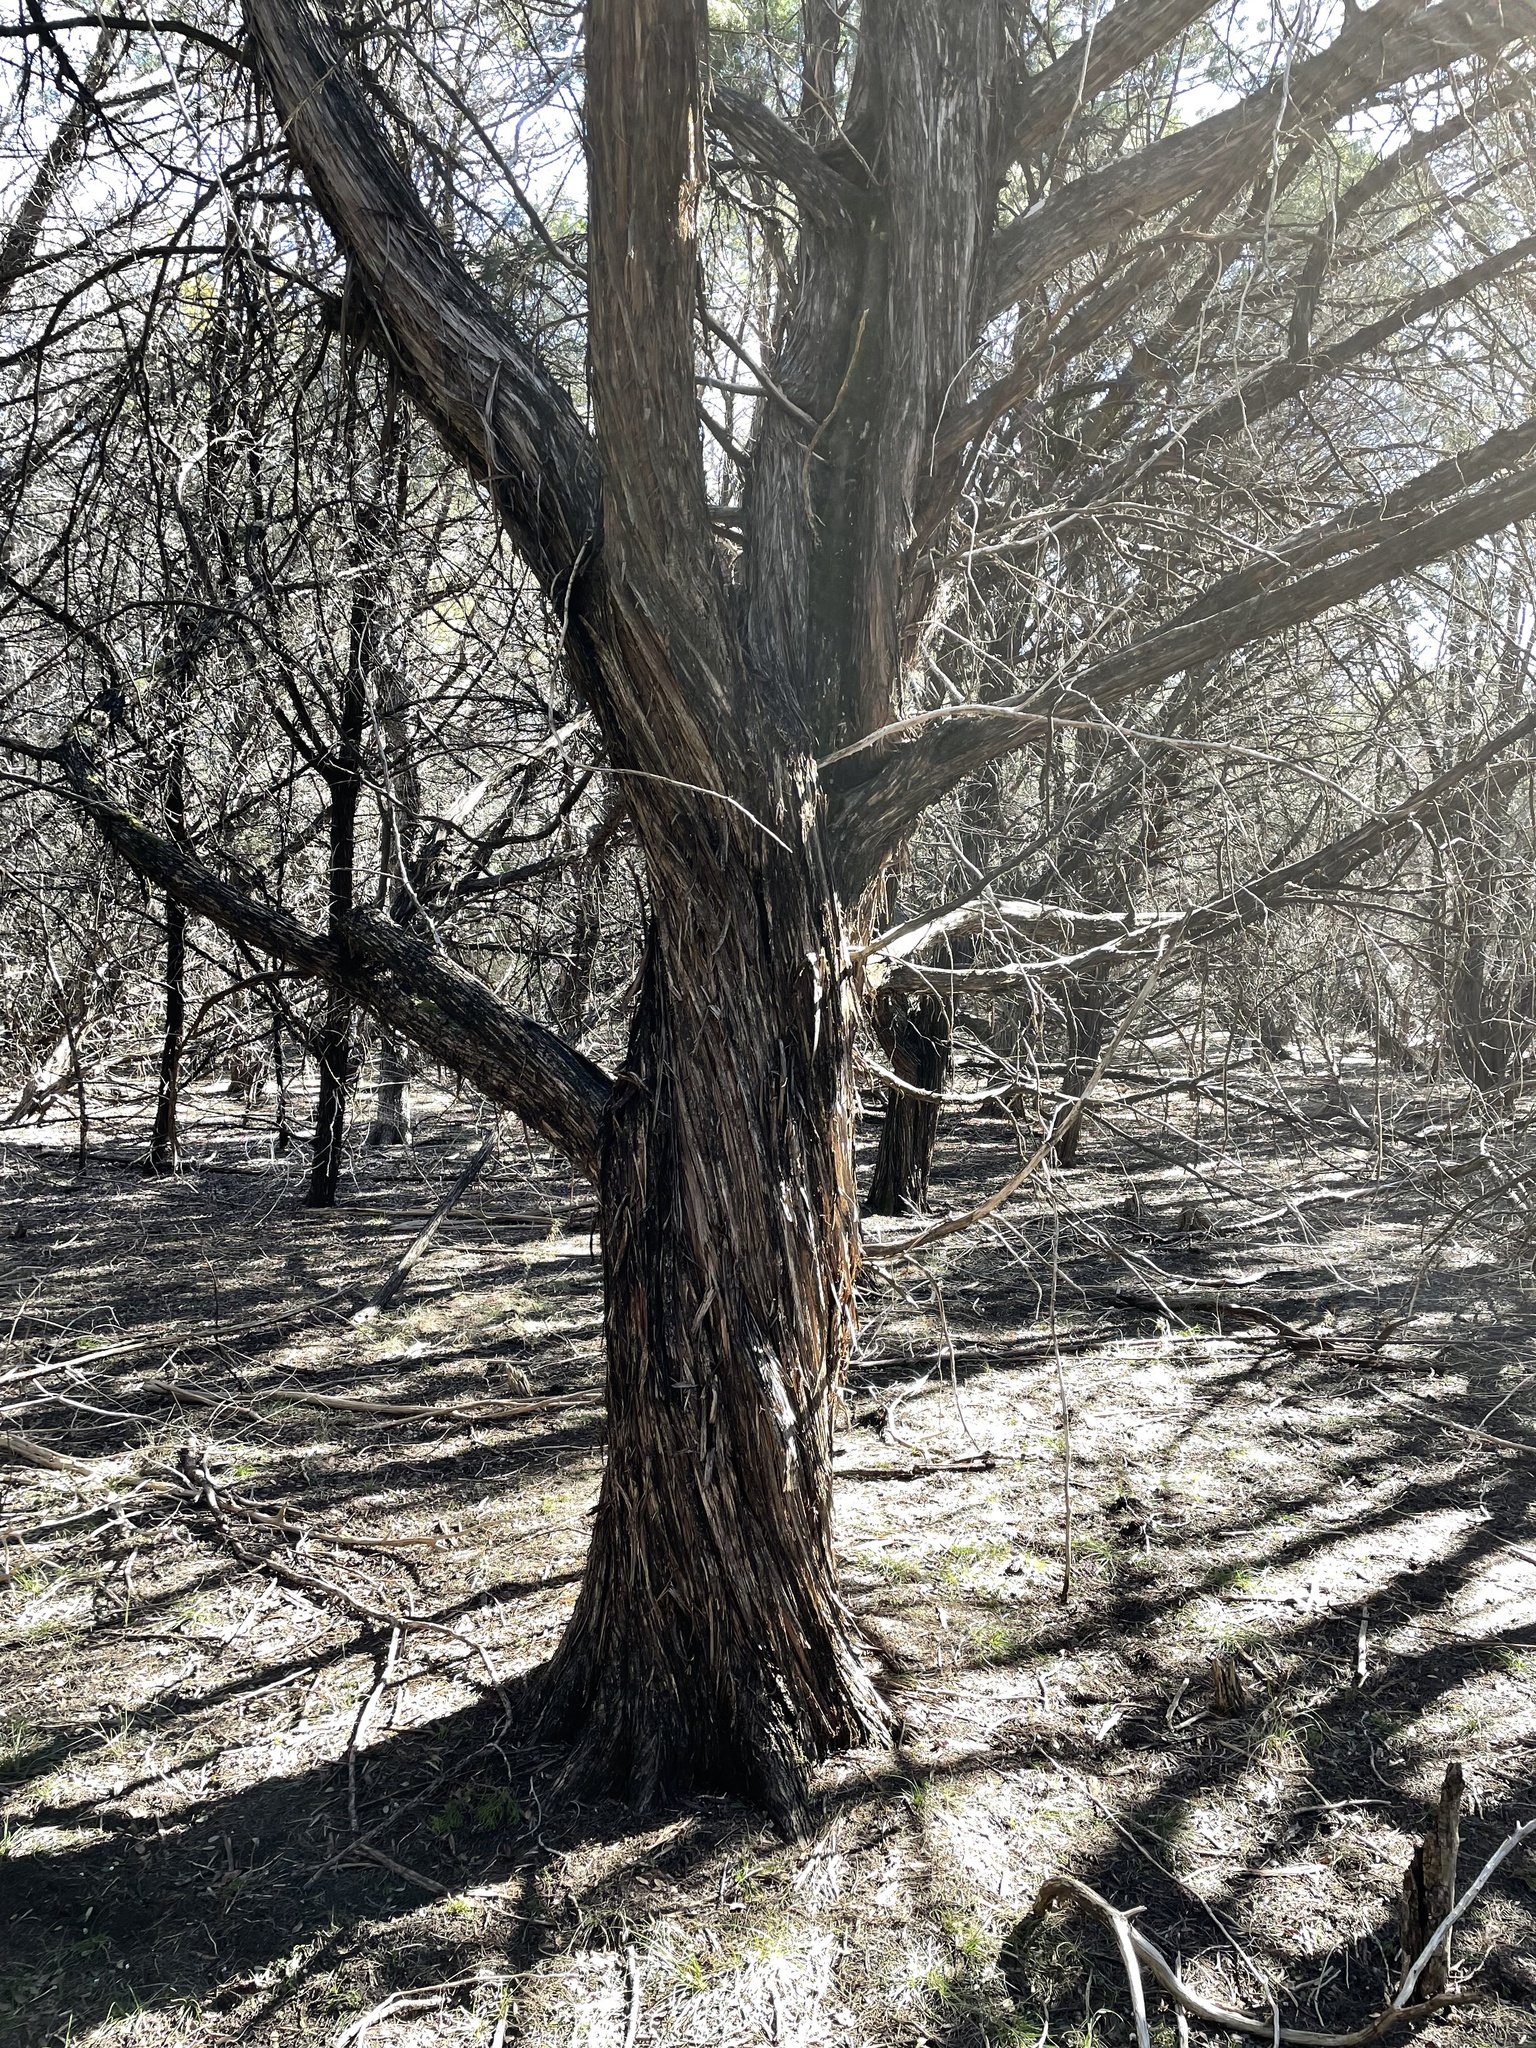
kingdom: Plantae
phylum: Tracheophyta
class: Pinopsida
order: Pinales
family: Cupressaceae
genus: Juniperus
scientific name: Juniperus ashei
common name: Mexican juniper
